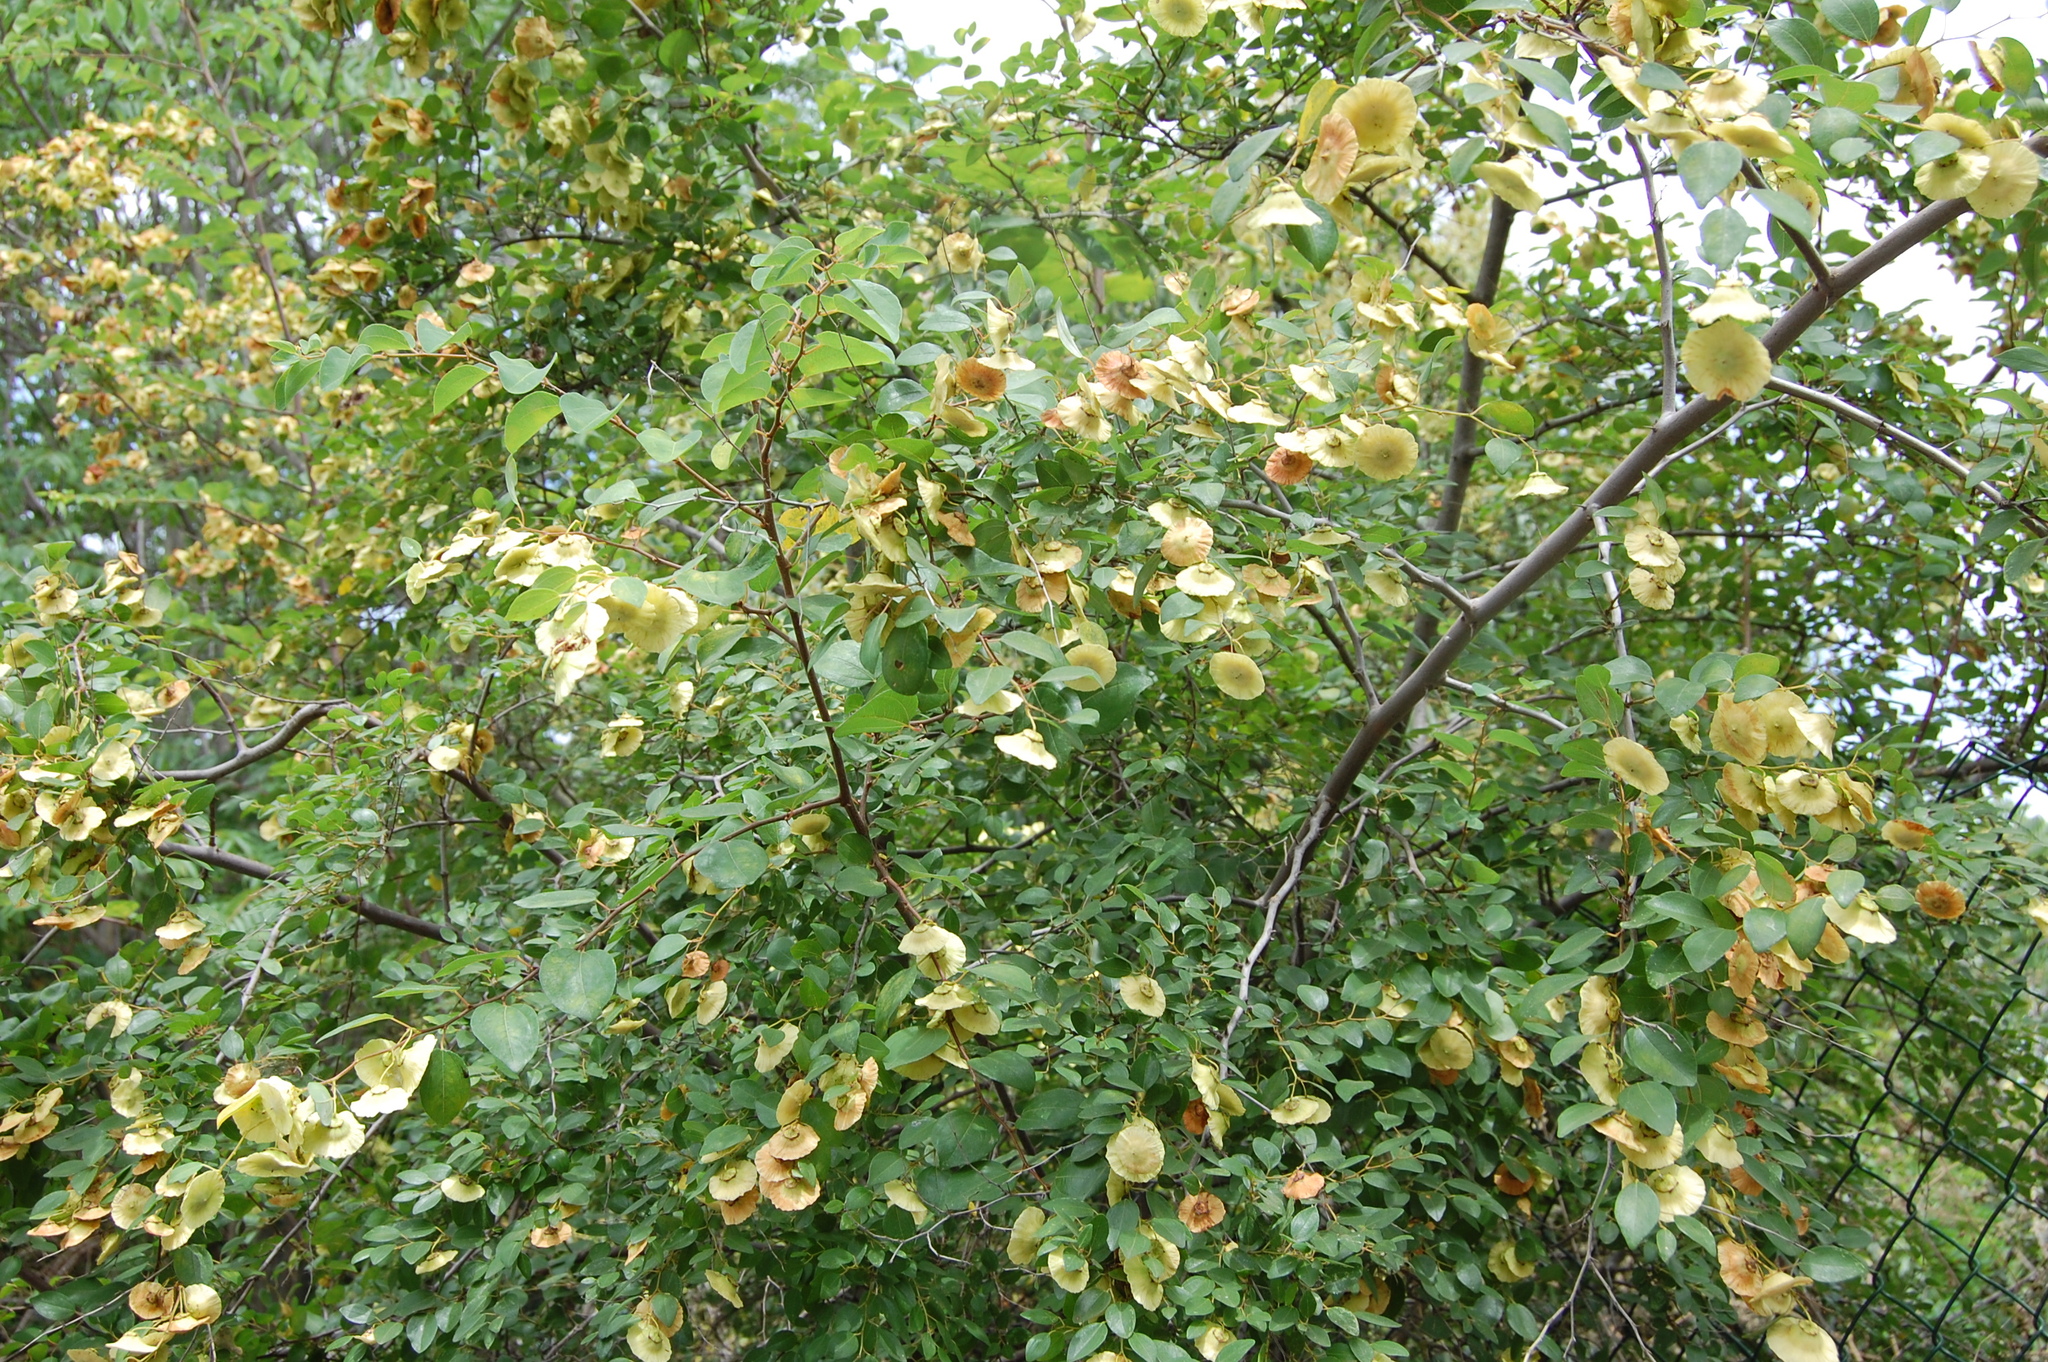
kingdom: Plantae
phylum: Tracheophyta
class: Magnoliopsida
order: Rosales
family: Rhamnaceae
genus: Paliurus
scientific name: Paliurus spina-christi
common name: Jeruselem thorn
